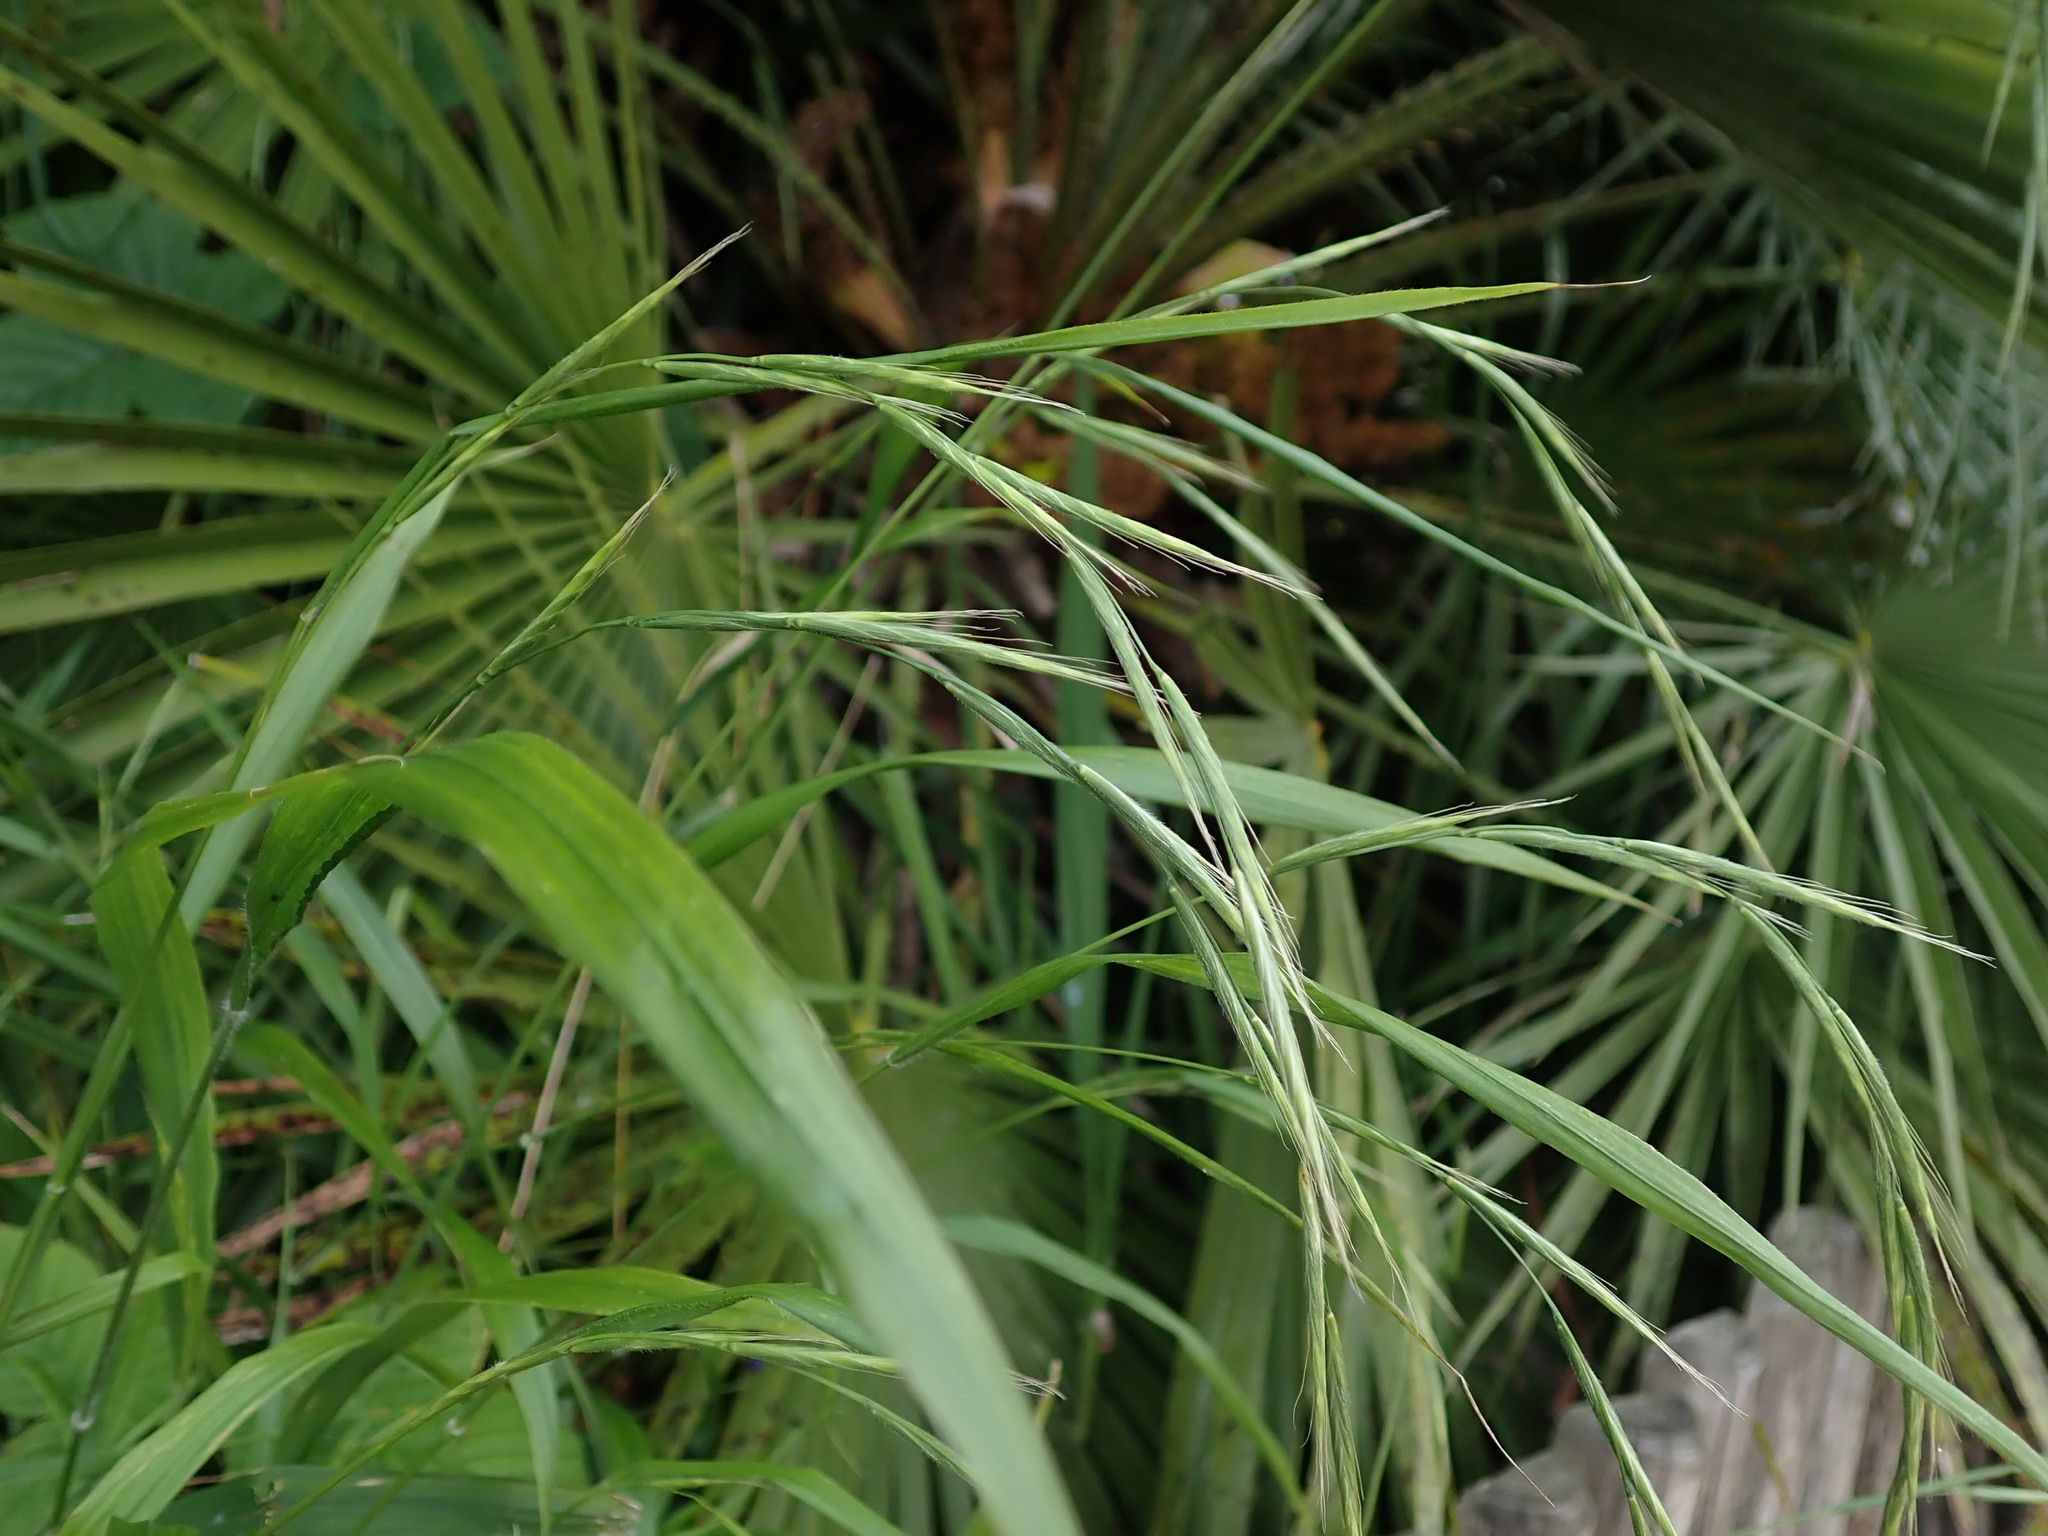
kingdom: Plantae
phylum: Tracheophyta
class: Liliopsida
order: Poales
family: Poaceae
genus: Brachypodium
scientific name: Brachypodium sylvaticum
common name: False-brome
